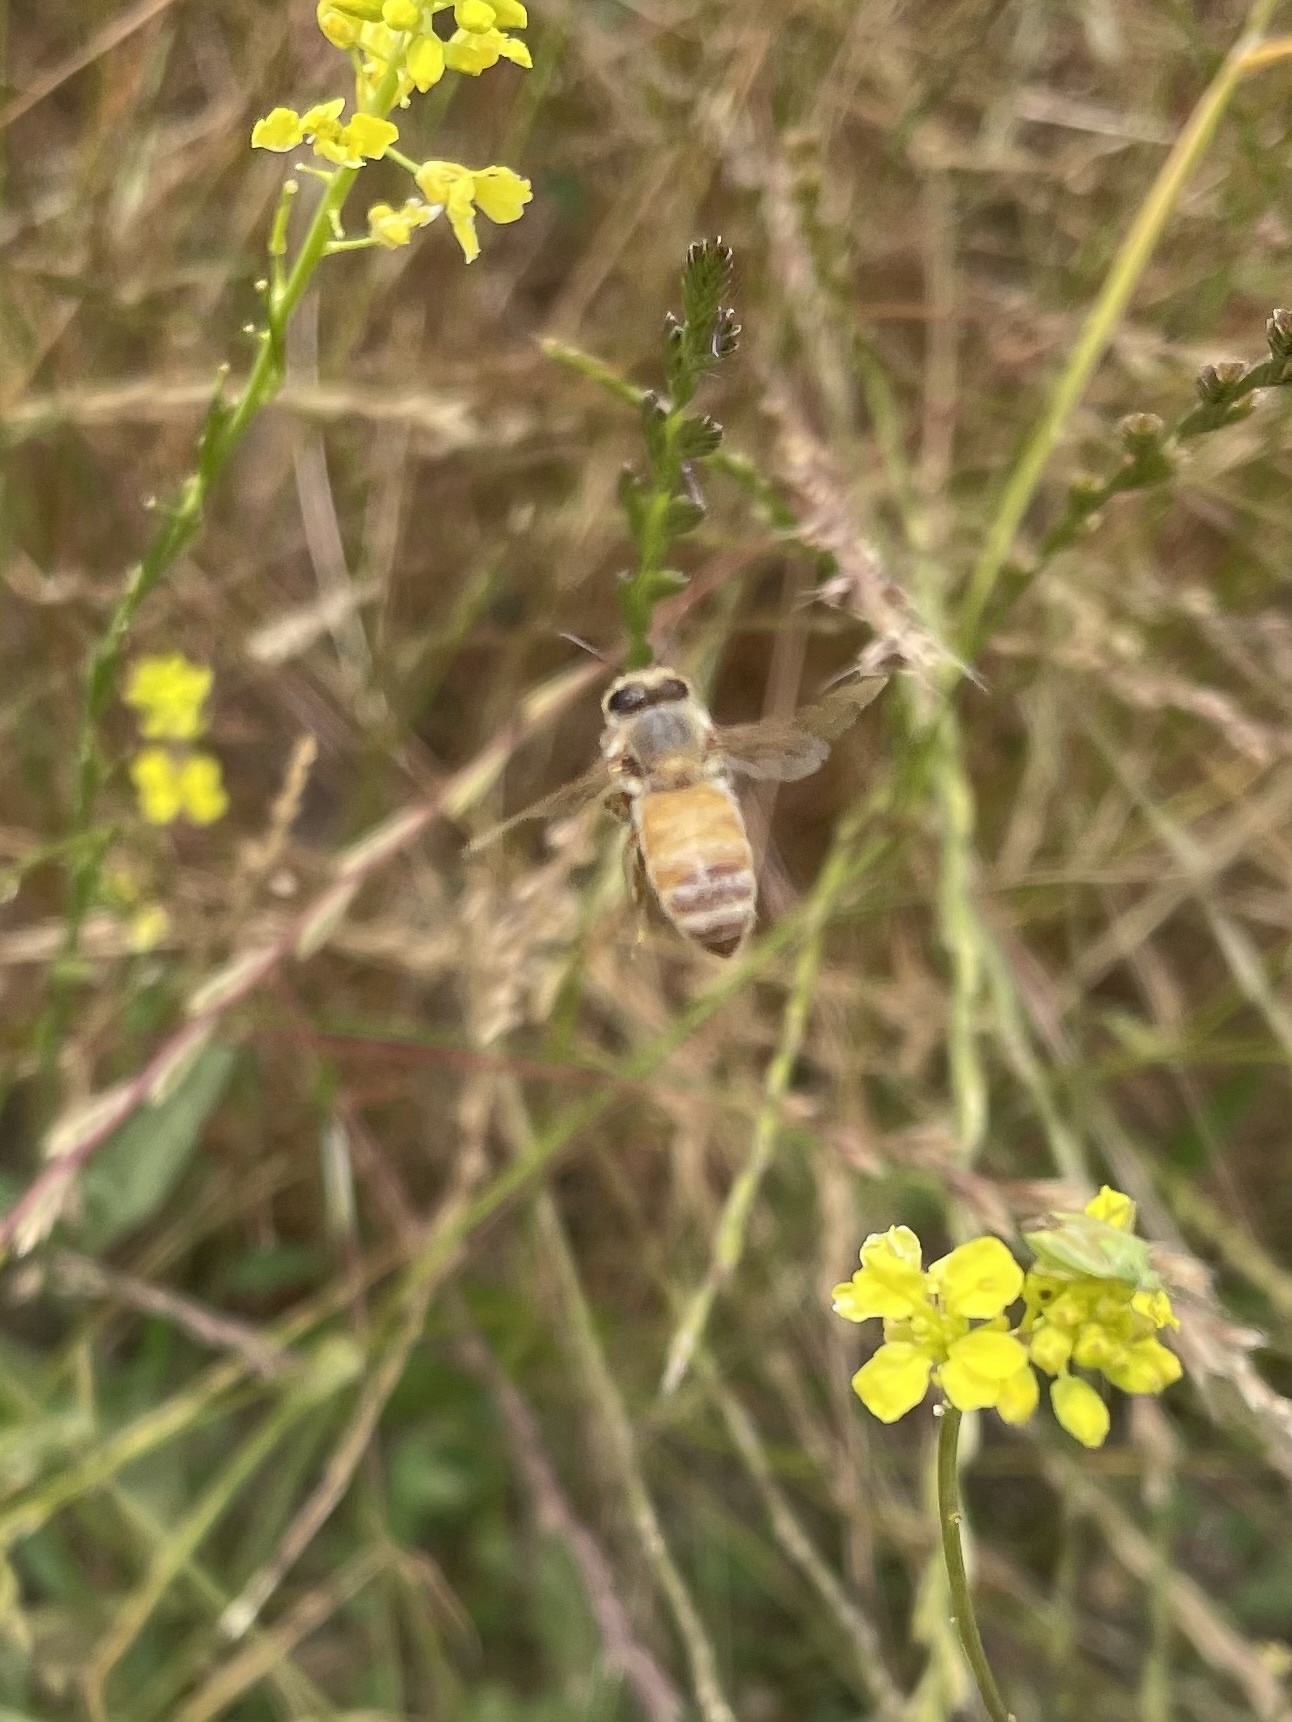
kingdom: Animalia
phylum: Arthropoda
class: Insecta
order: Hymenoptera
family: Apidae
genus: Apis
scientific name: Apis mellifera
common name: Honey bee
